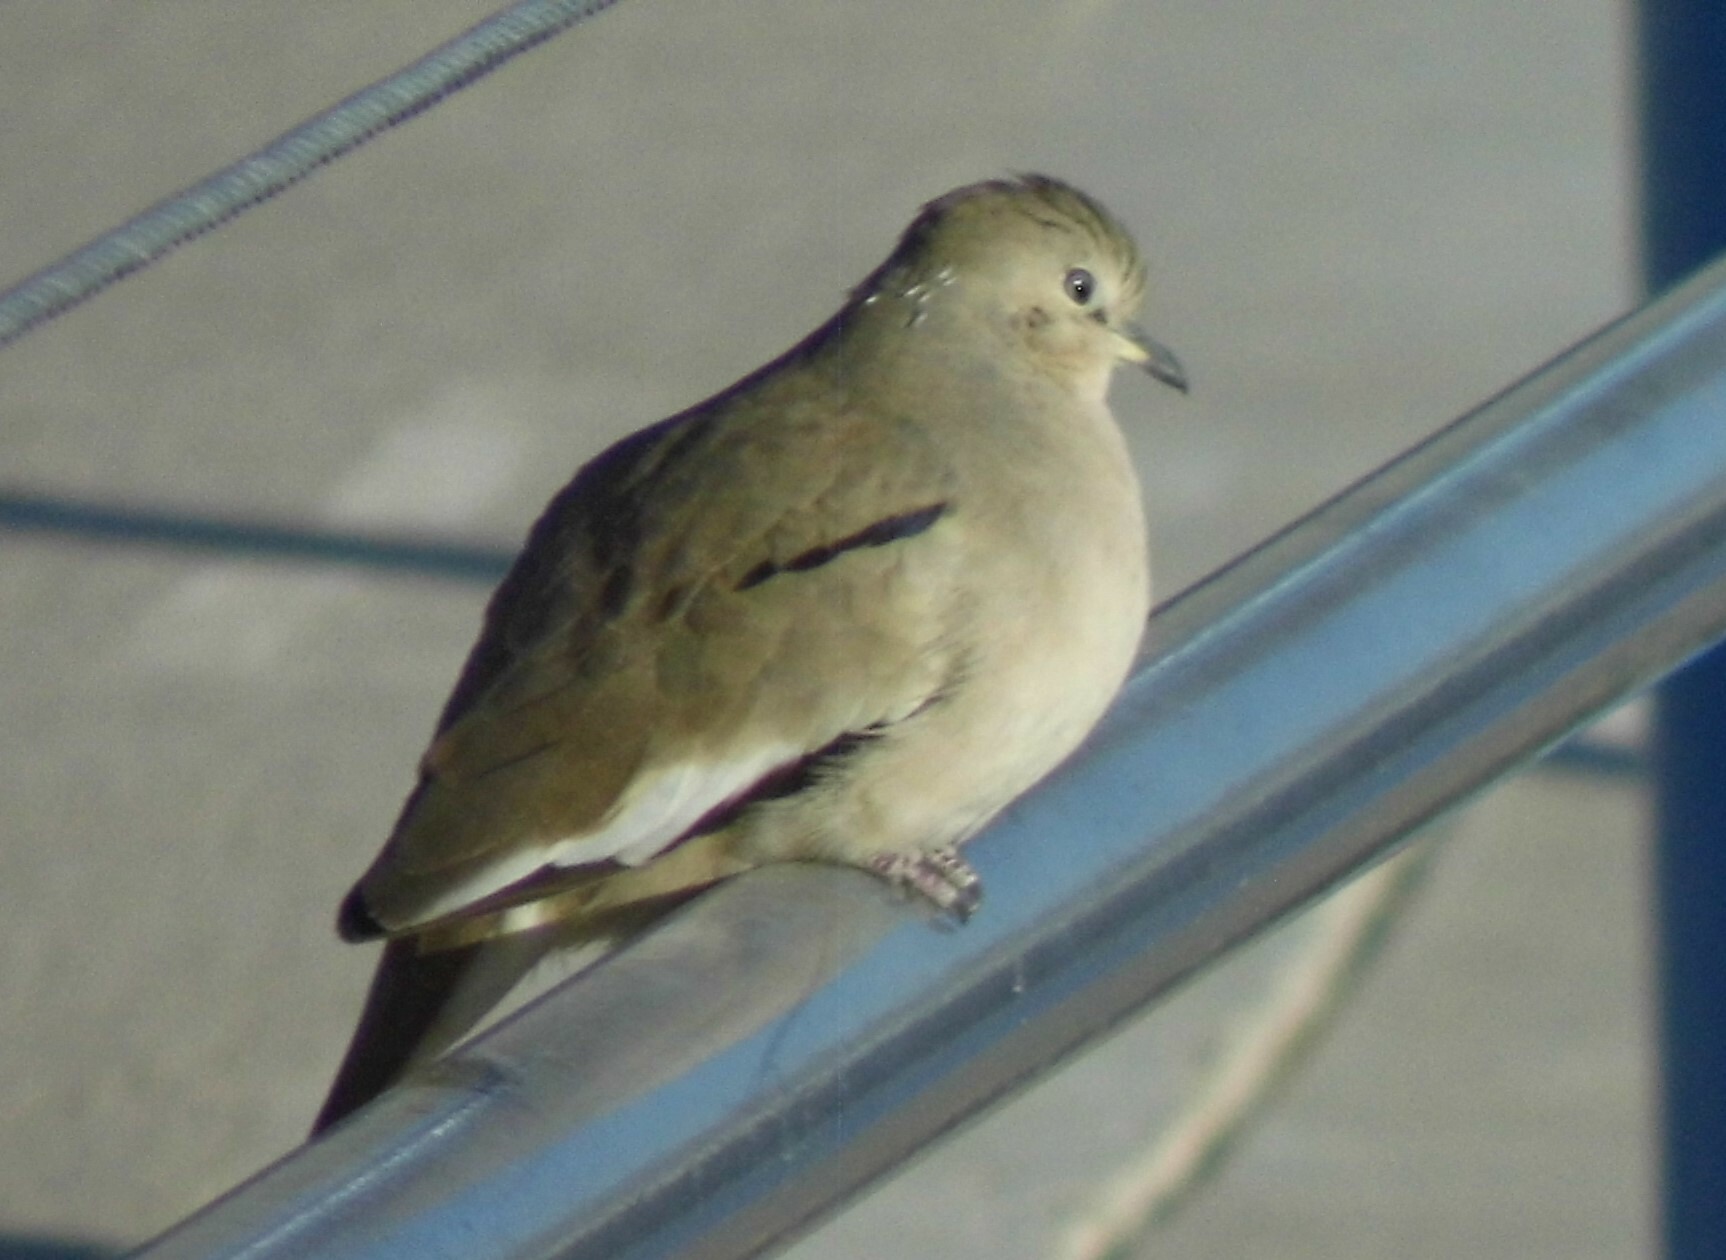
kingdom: Animalia
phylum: Chordata
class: Aves
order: Columbiformes
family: Columbidae
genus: Columbina
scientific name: Columbina picui
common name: Picui ground dove
